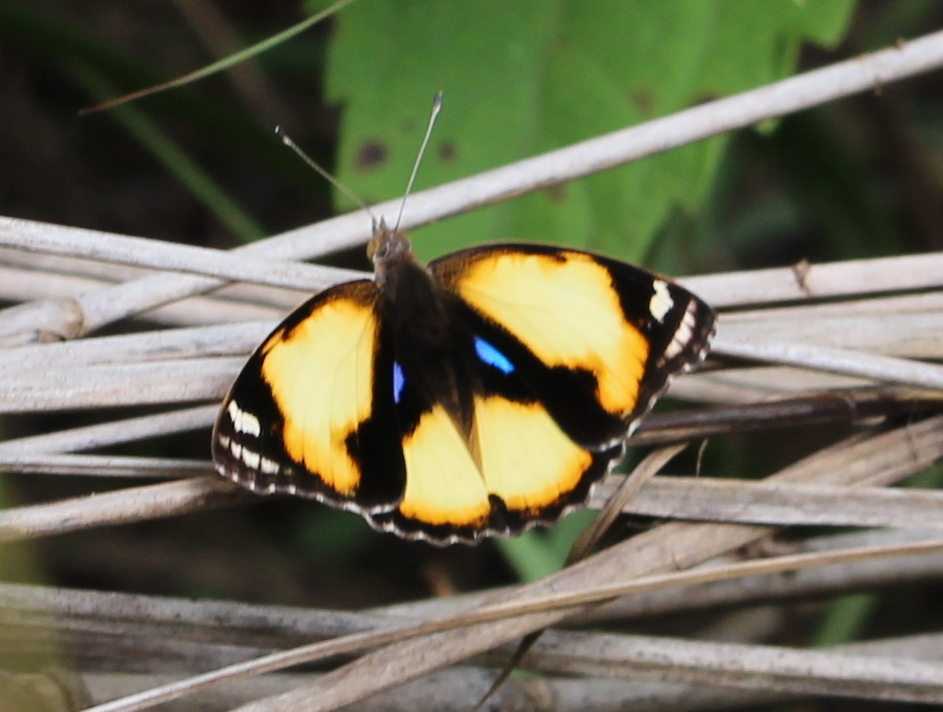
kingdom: Animalia
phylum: Arthropoda
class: Insecta
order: Lepidoptera
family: Nymphalidae
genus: Junonia
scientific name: Junonia hierta
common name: Yellow pansy
